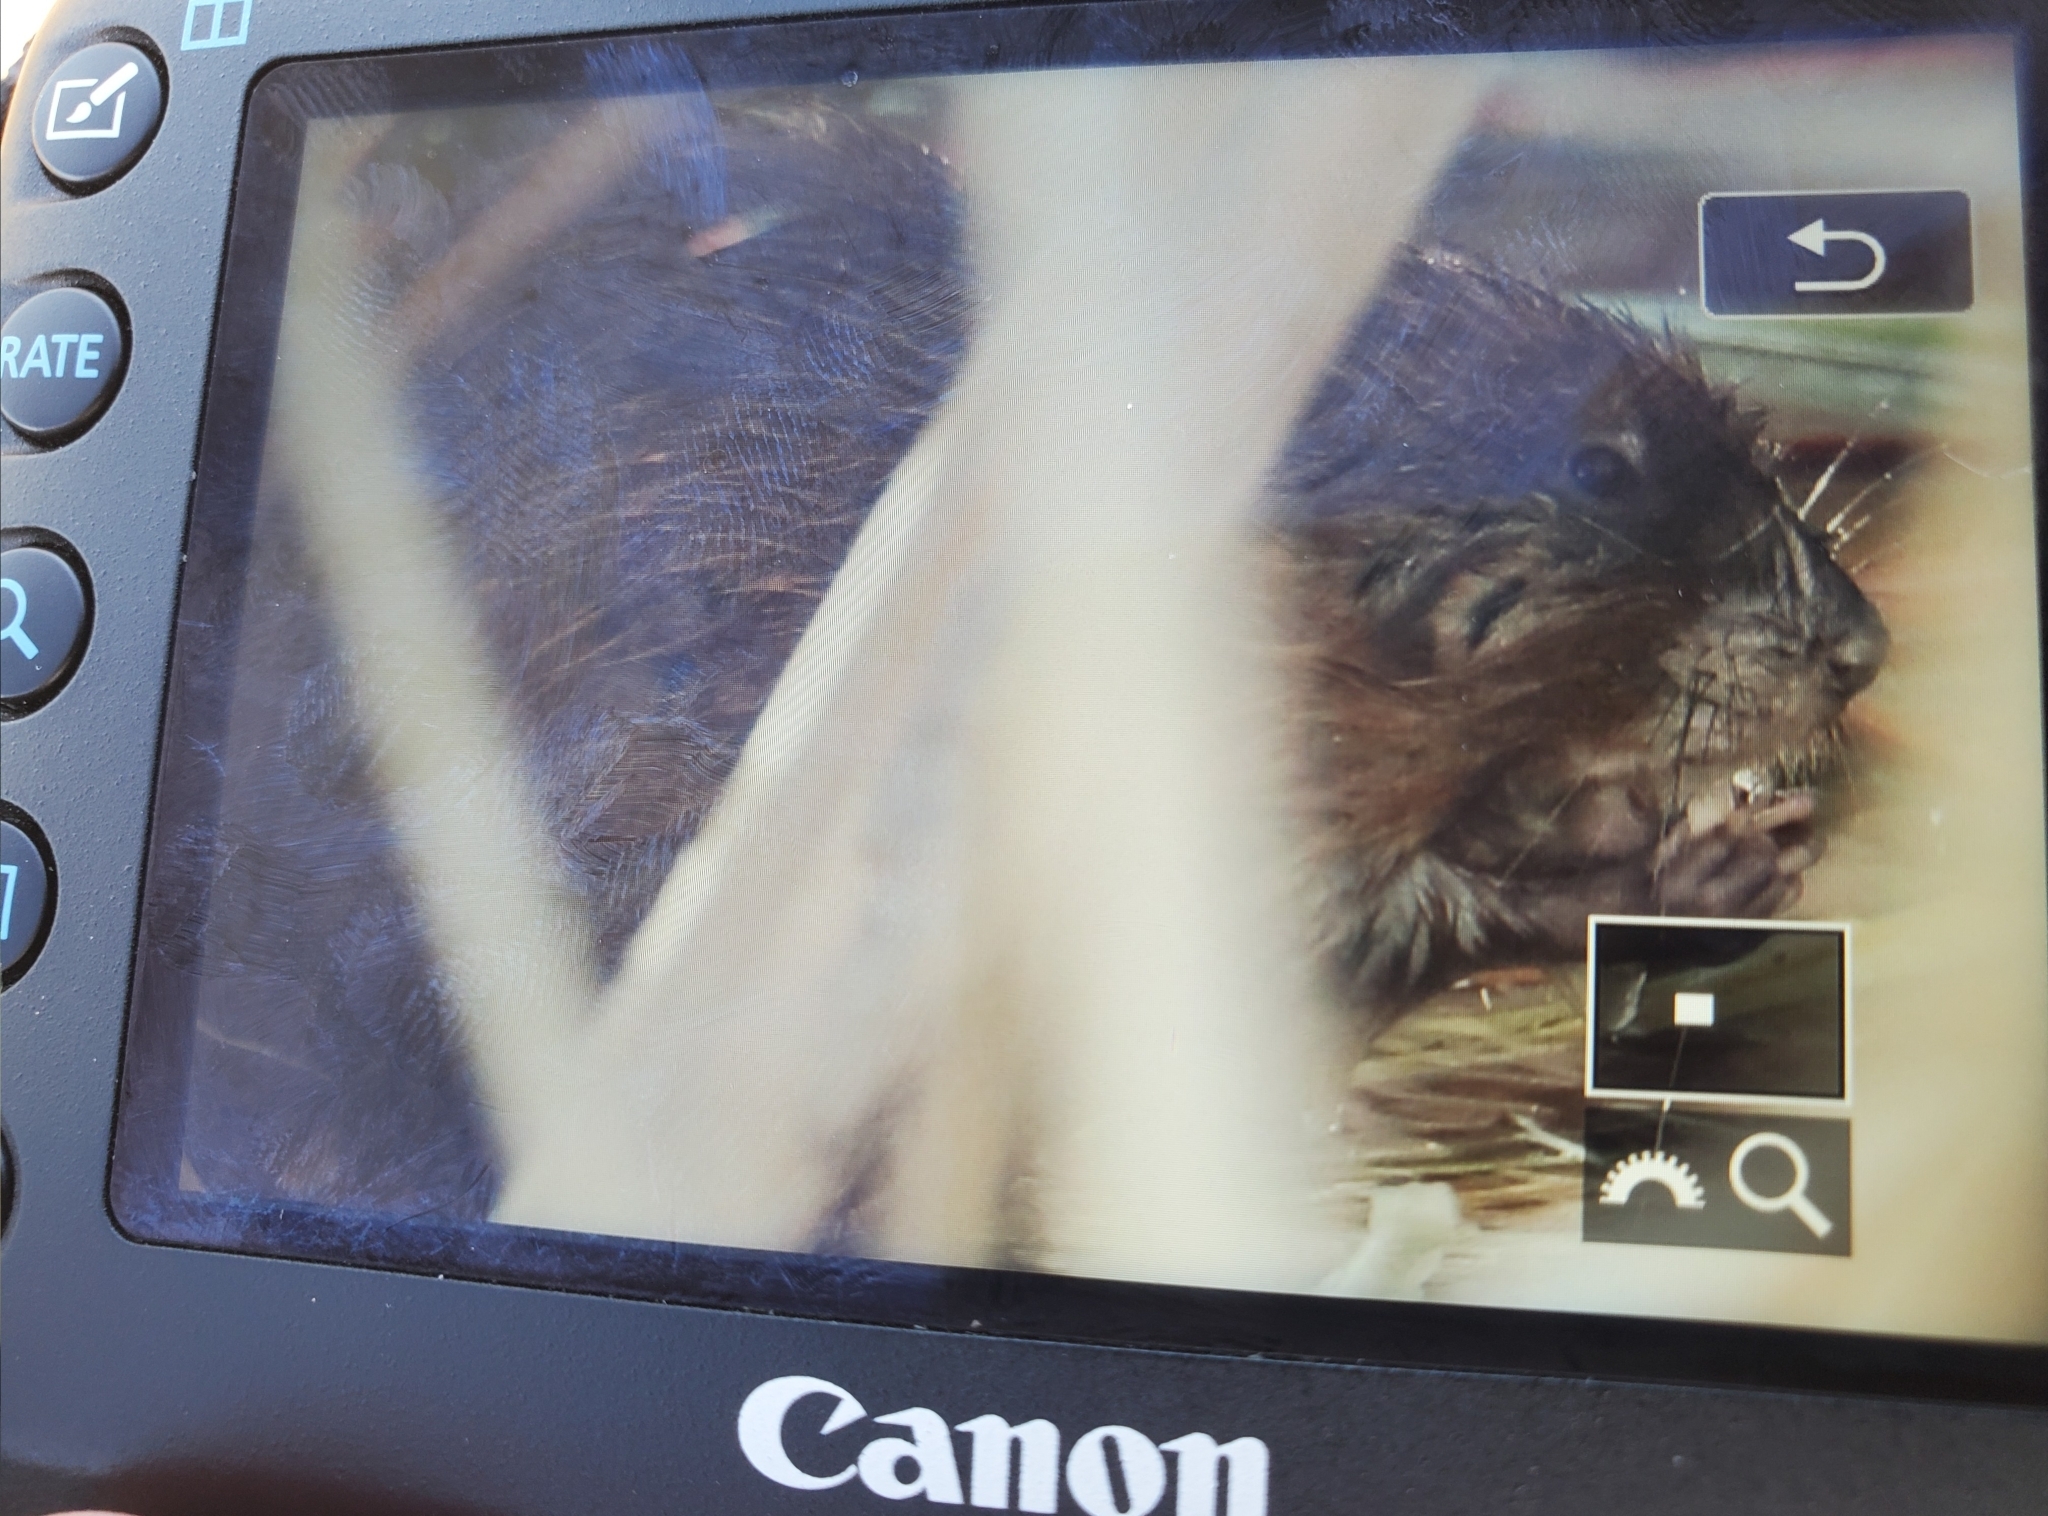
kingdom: Animalia
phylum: Chordata
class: Mammalia
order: Rodentia
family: Cricetidae
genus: Ondatra
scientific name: Ondatra zibethicus
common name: Muskrat
